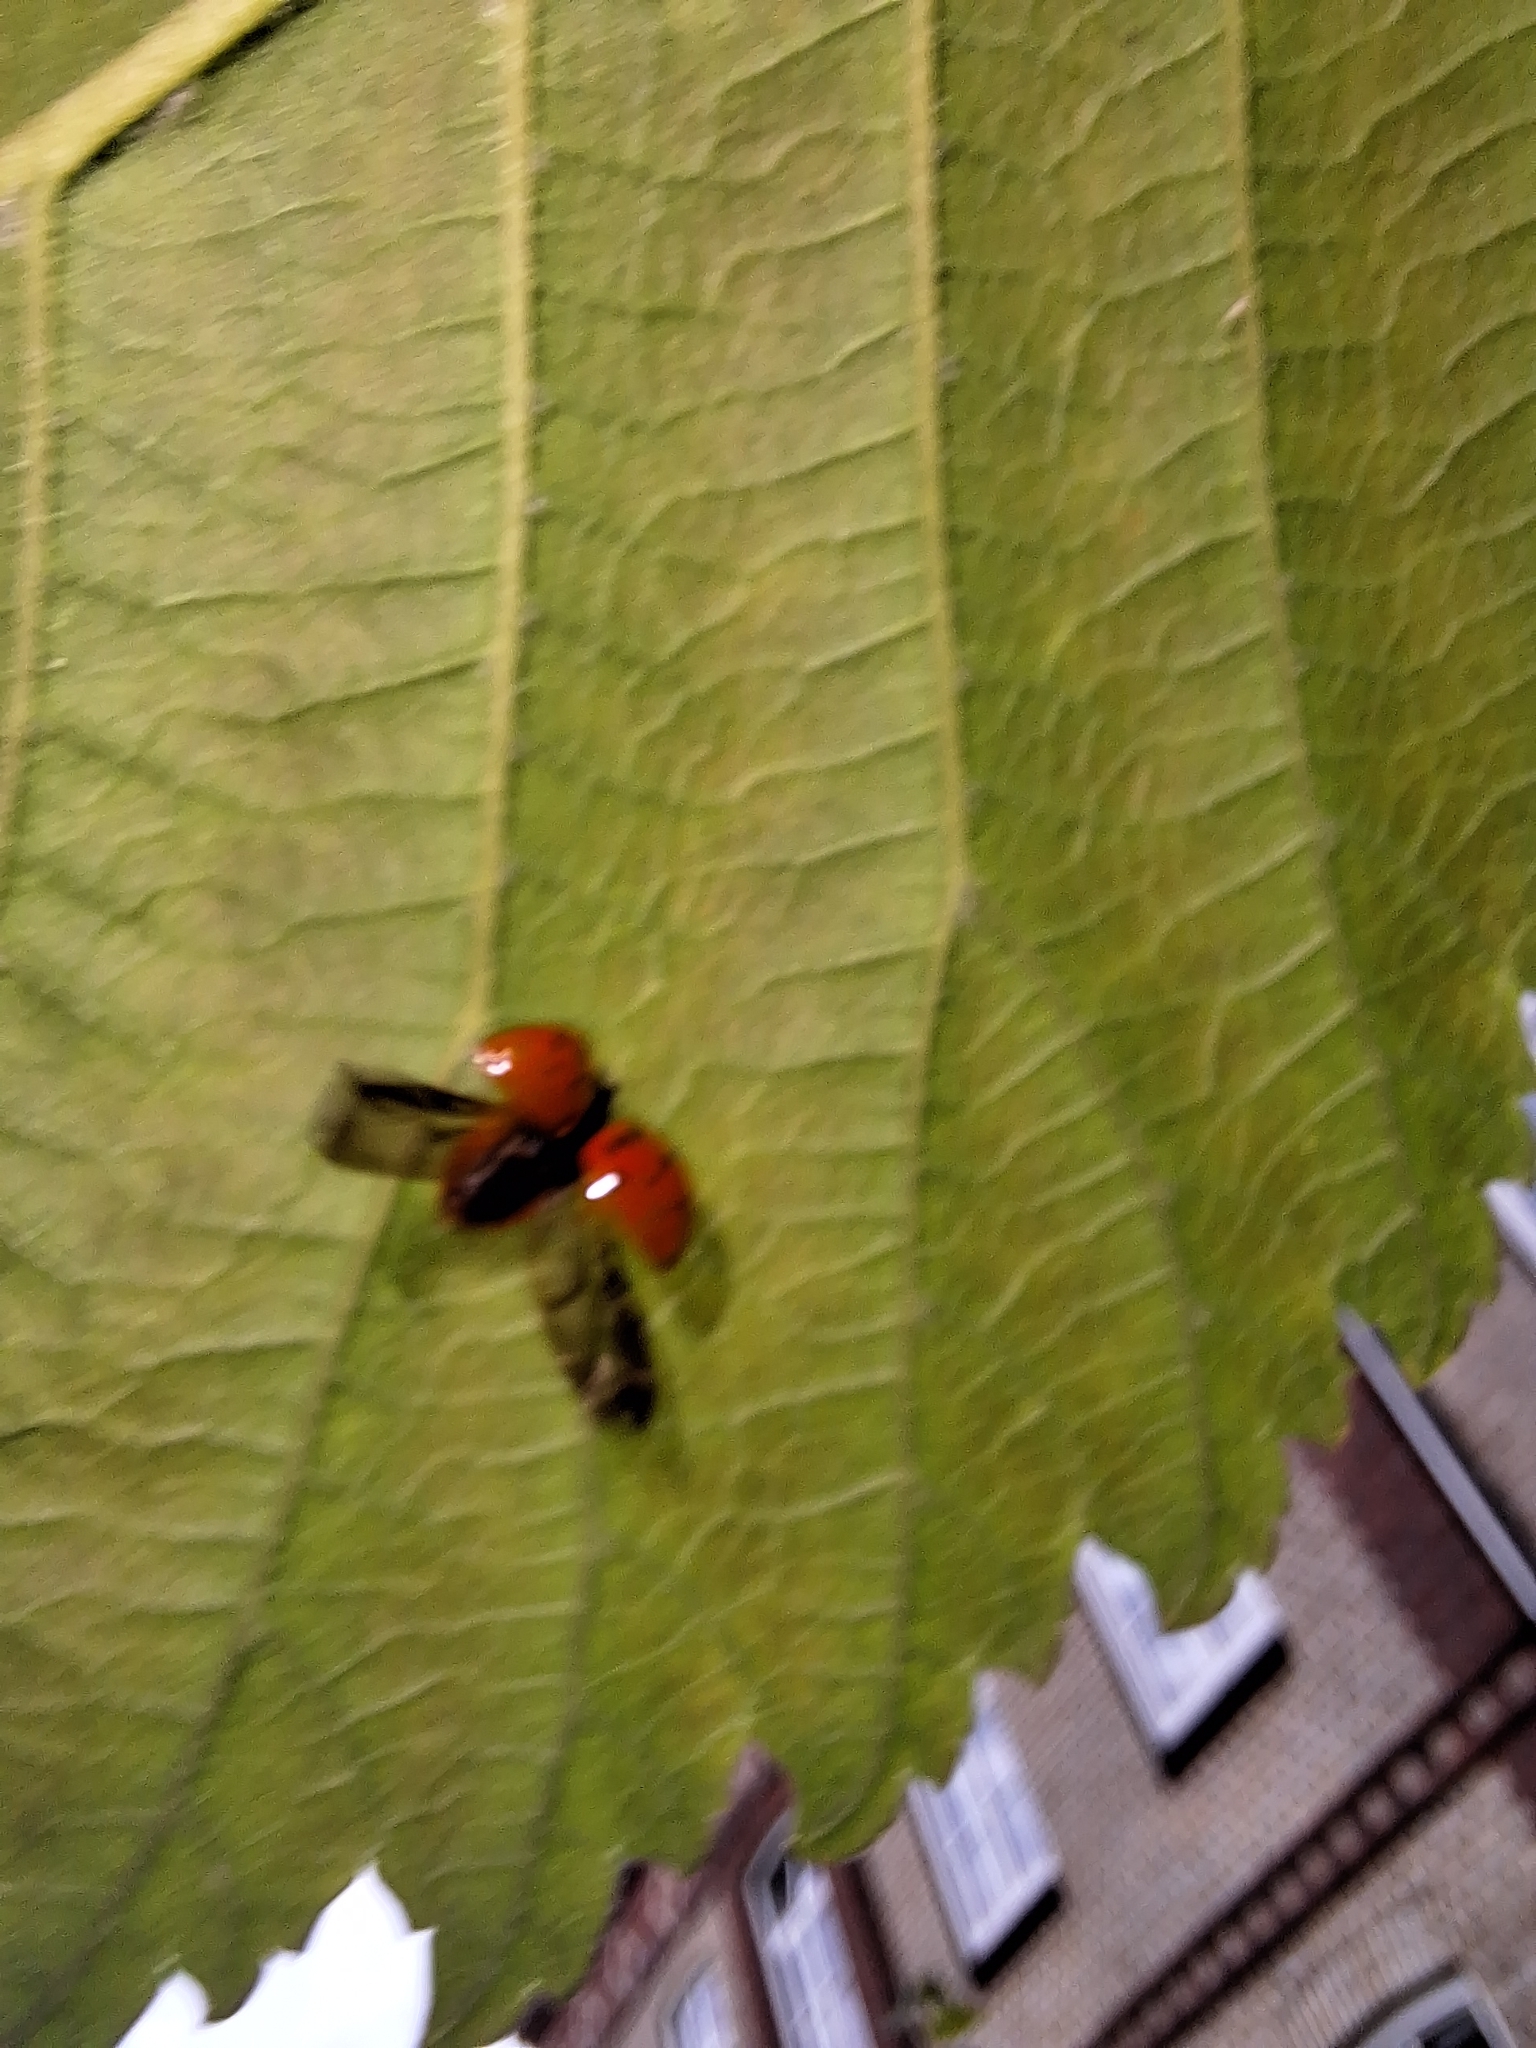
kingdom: Animalia
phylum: Arthropoda
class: Insecta
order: Coleoptera
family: Coccinellidae
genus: Harmonia
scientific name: Harmonia axyridis
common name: Harlequin ladybird
